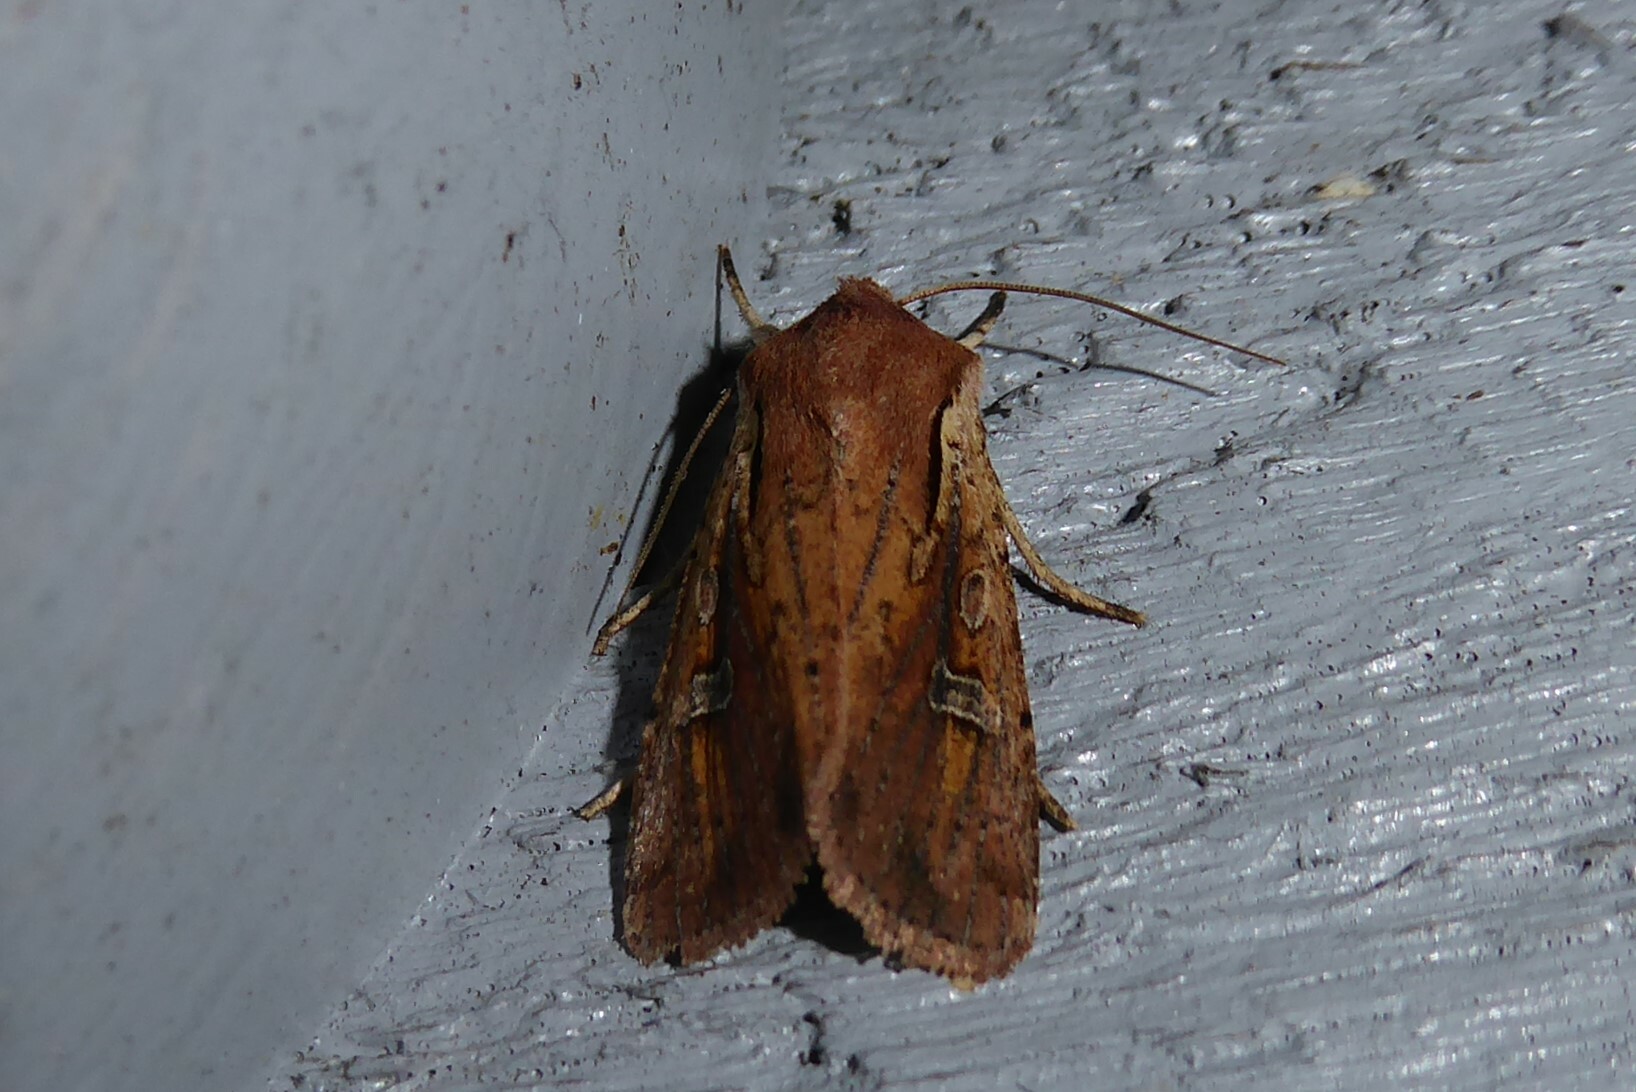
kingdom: Animalia
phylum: Arthropoda
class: Insecta
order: Lepidoptera
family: Noctuidae
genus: Ichneutica
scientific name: Ichneutica atristriga
